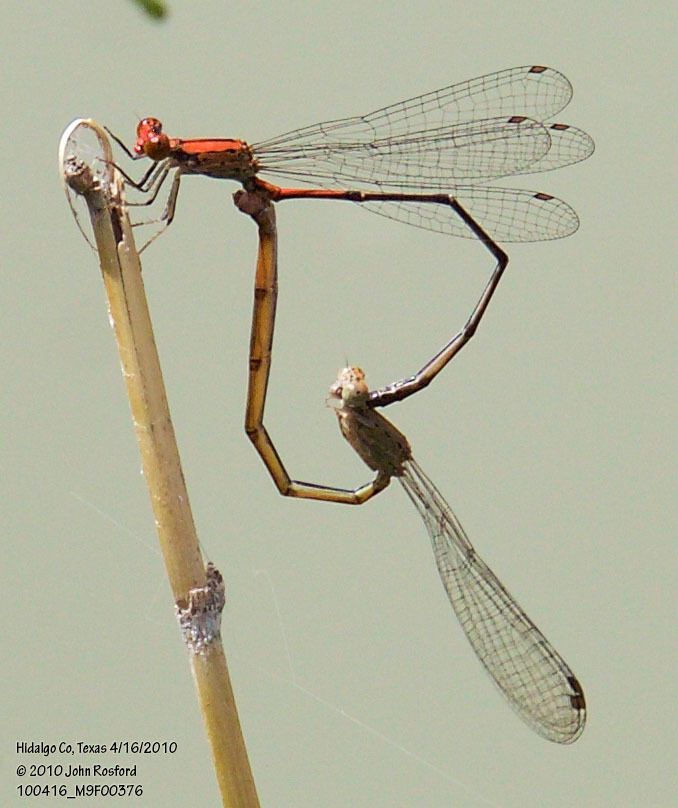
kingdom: Animalia
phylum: Arthropoda
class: Insecta
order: Odonata
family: Coenagrionidae
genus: Neoneura
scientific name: Neoneura amelia
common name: Amelia’s threadtail
